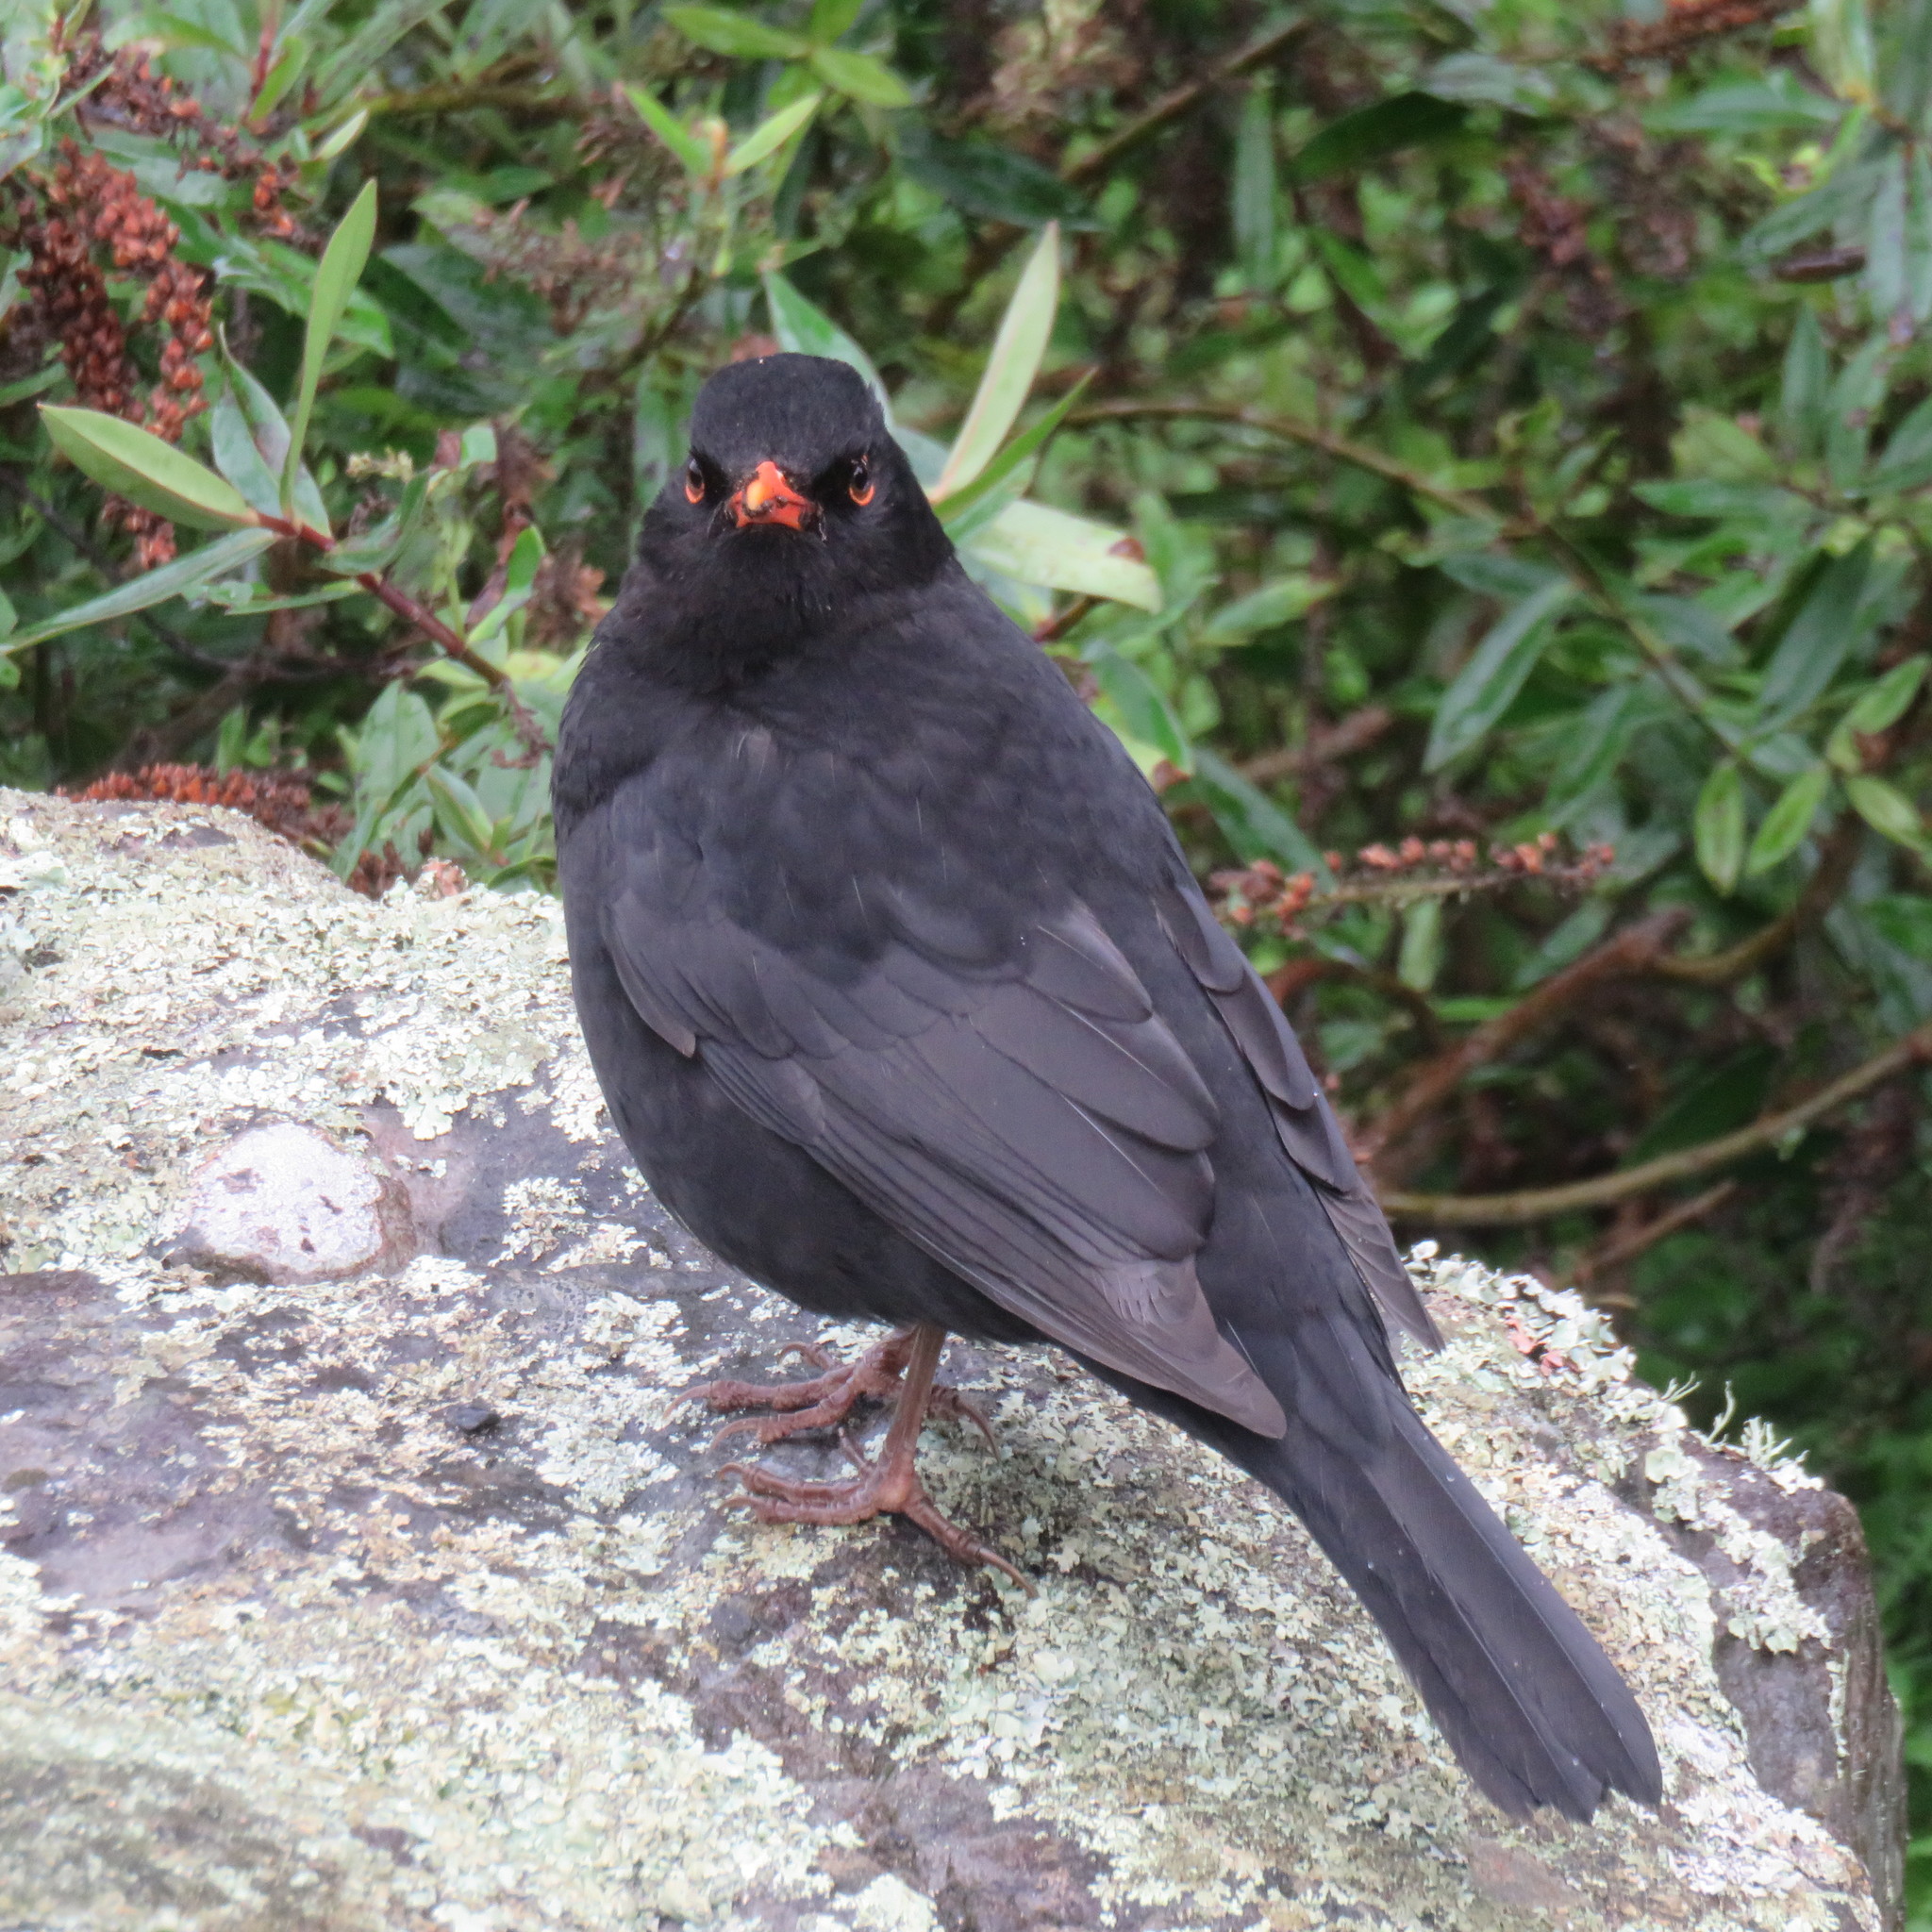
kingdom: Animalia
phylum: Chordata
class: Aves
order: Passeriformes
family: Turdidae
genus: Turdus
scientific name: Turdus merula
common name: Common blackbird
